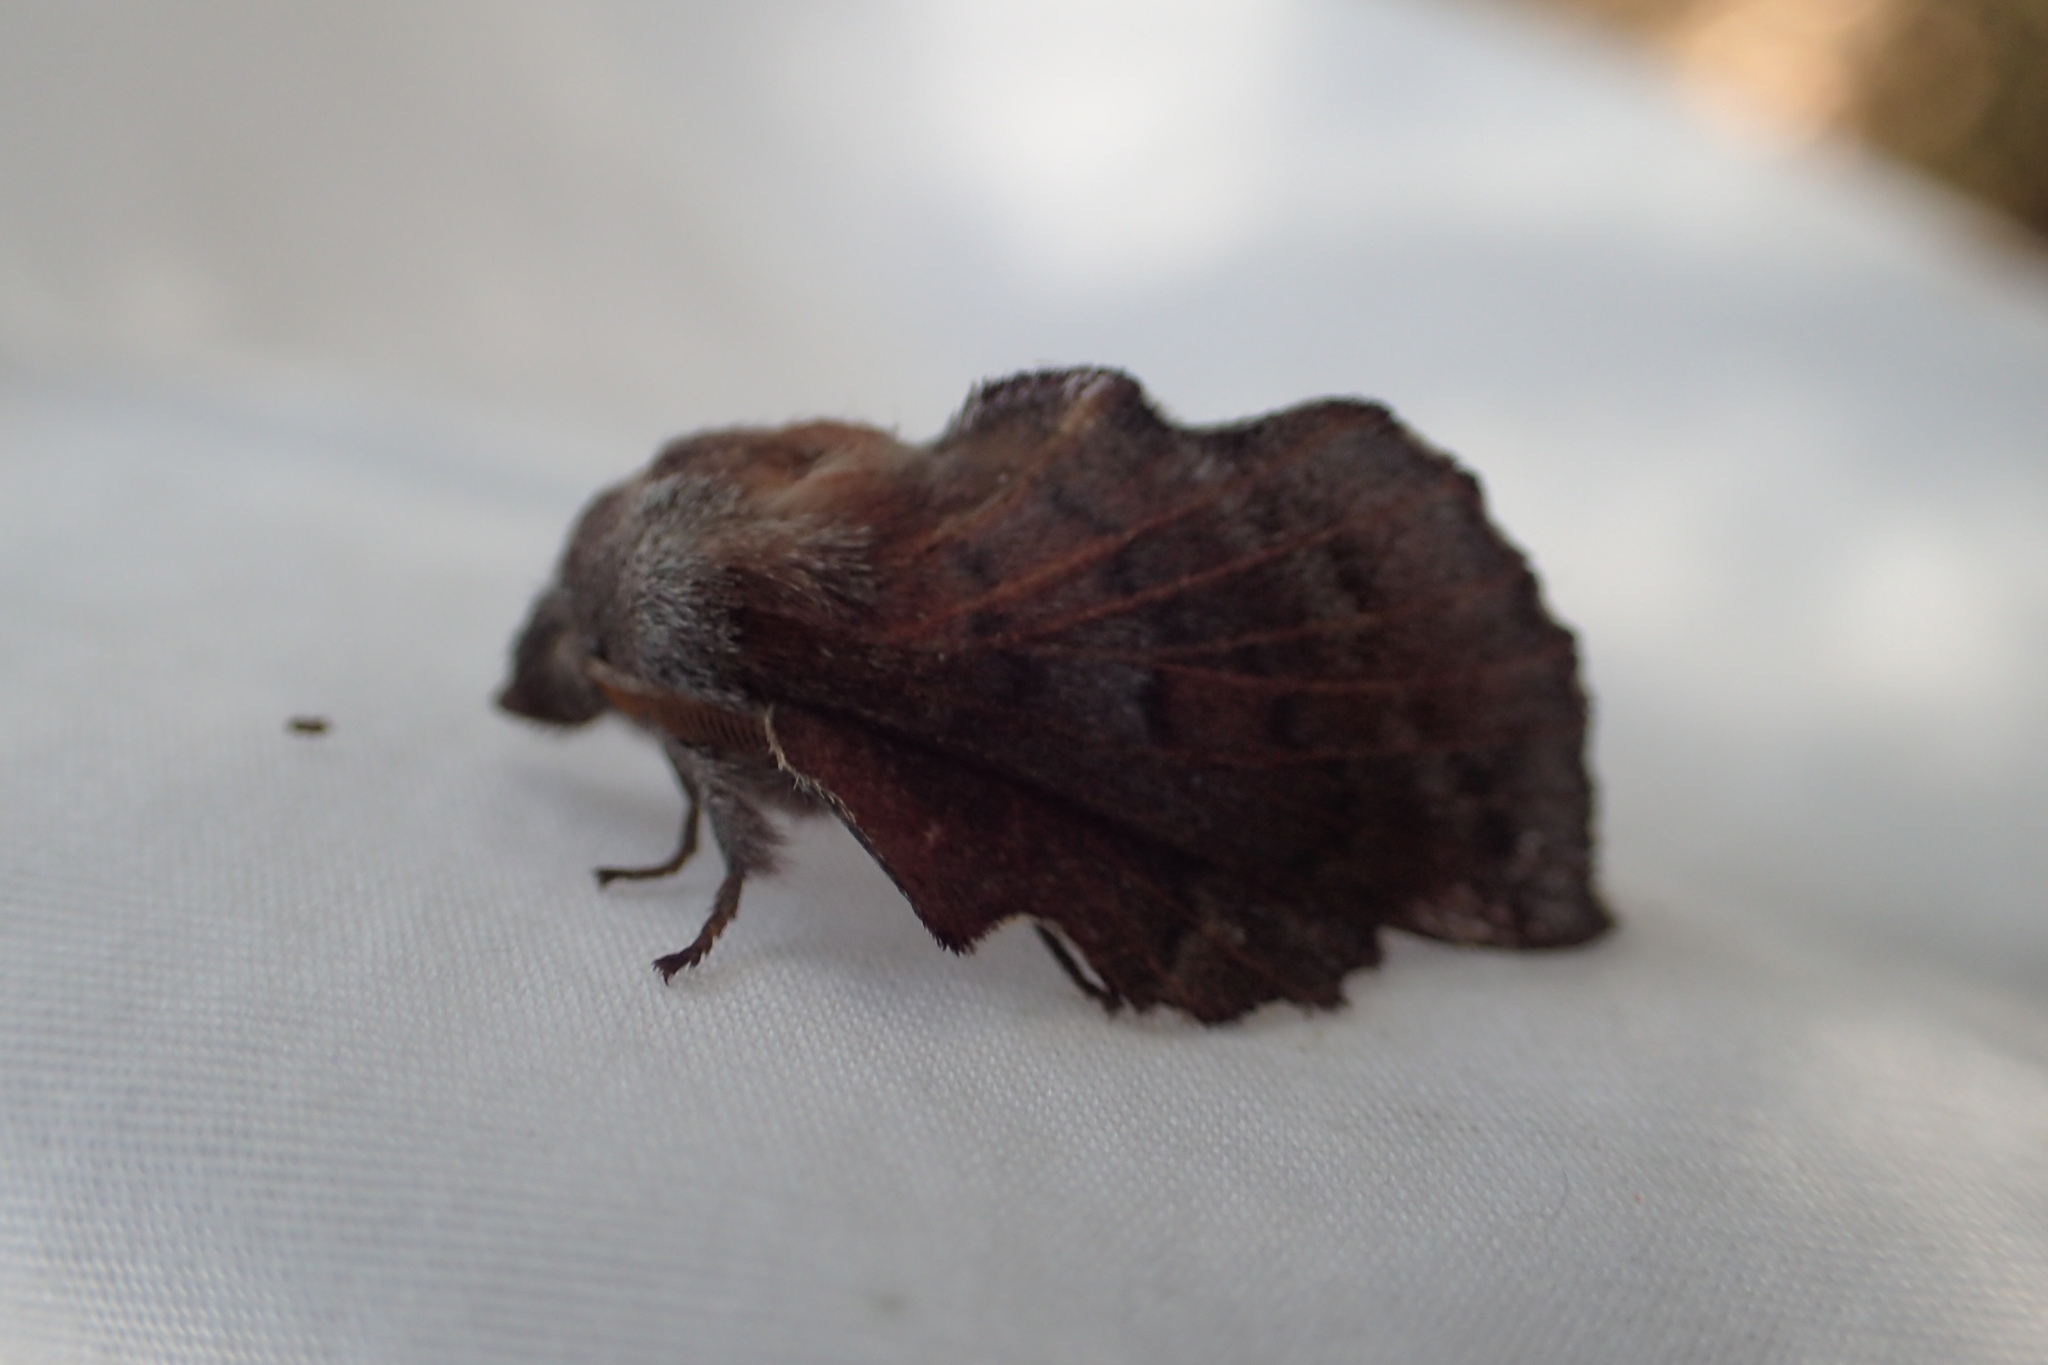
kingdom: Animalia
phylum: Arthropoda
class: Insecta
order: Lepidoptera
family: Lasiocampidae
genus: Phyllodesma
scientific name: Phyllodesma americana
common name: American lappet moth
